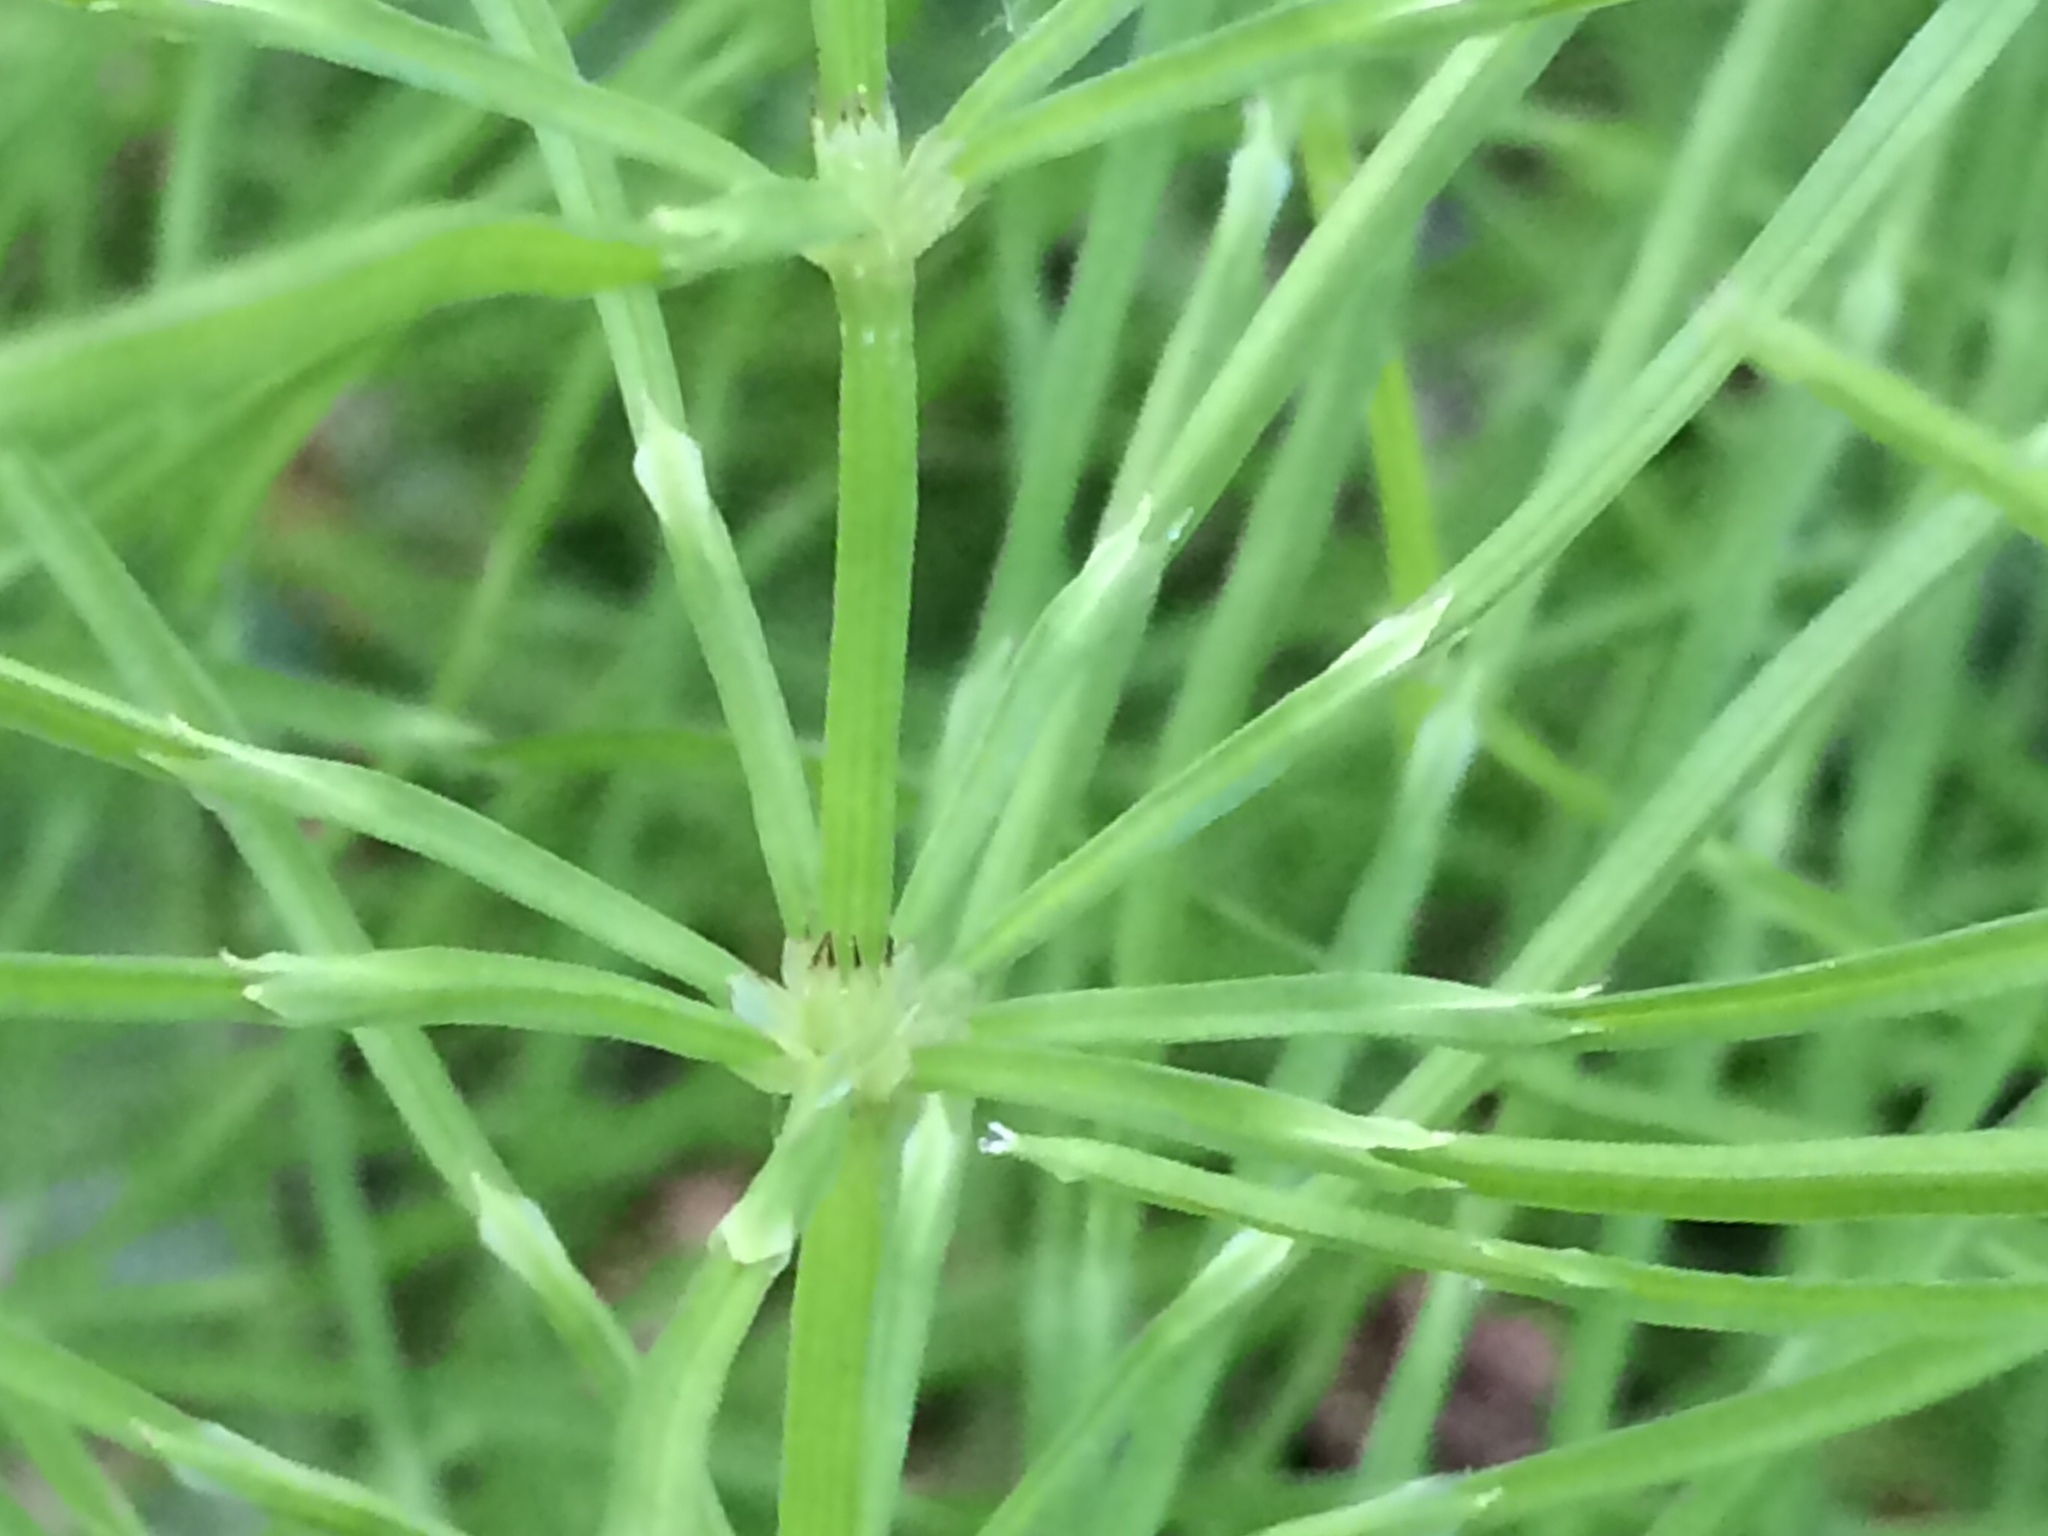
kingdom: Plantae
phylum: Tracheophyta
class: Polypodiopsida
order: Equisetales
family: Equisetaceae
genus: Equisetum
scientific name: Equisetum arvense
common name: Field horsetail
